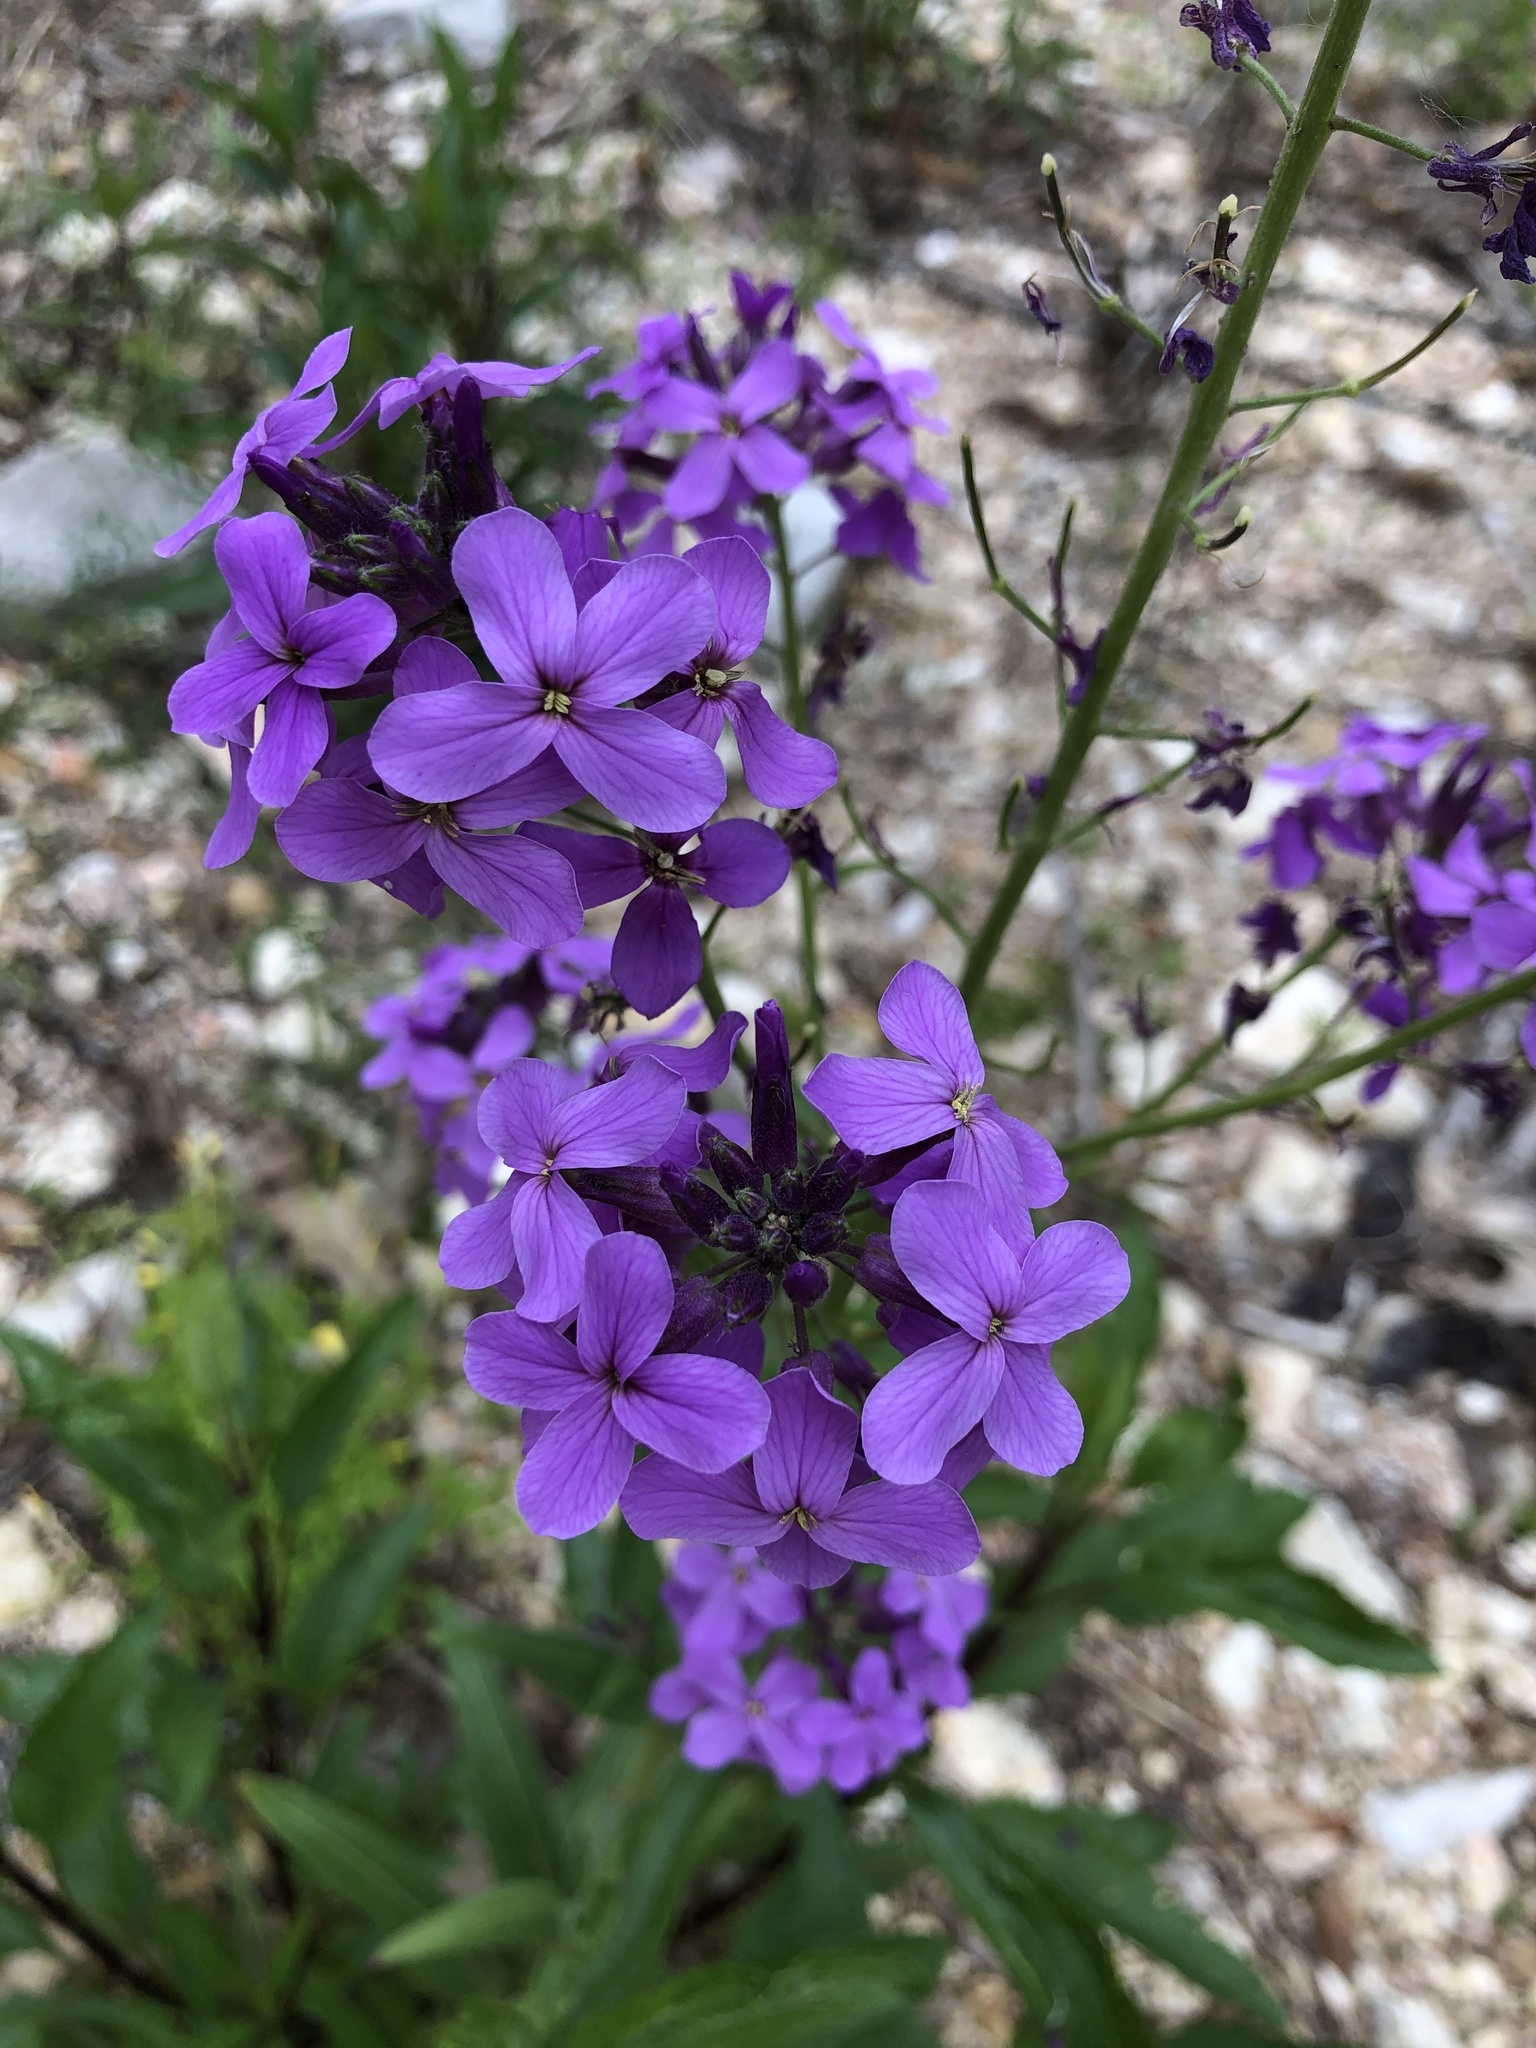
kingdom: Plantae
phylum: Tracheophyta
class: Magnoliopsida
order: Brassicales
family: Brassicaceae
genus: Hesperis
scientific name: Hesperis matronalis
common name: Dame's-violet
